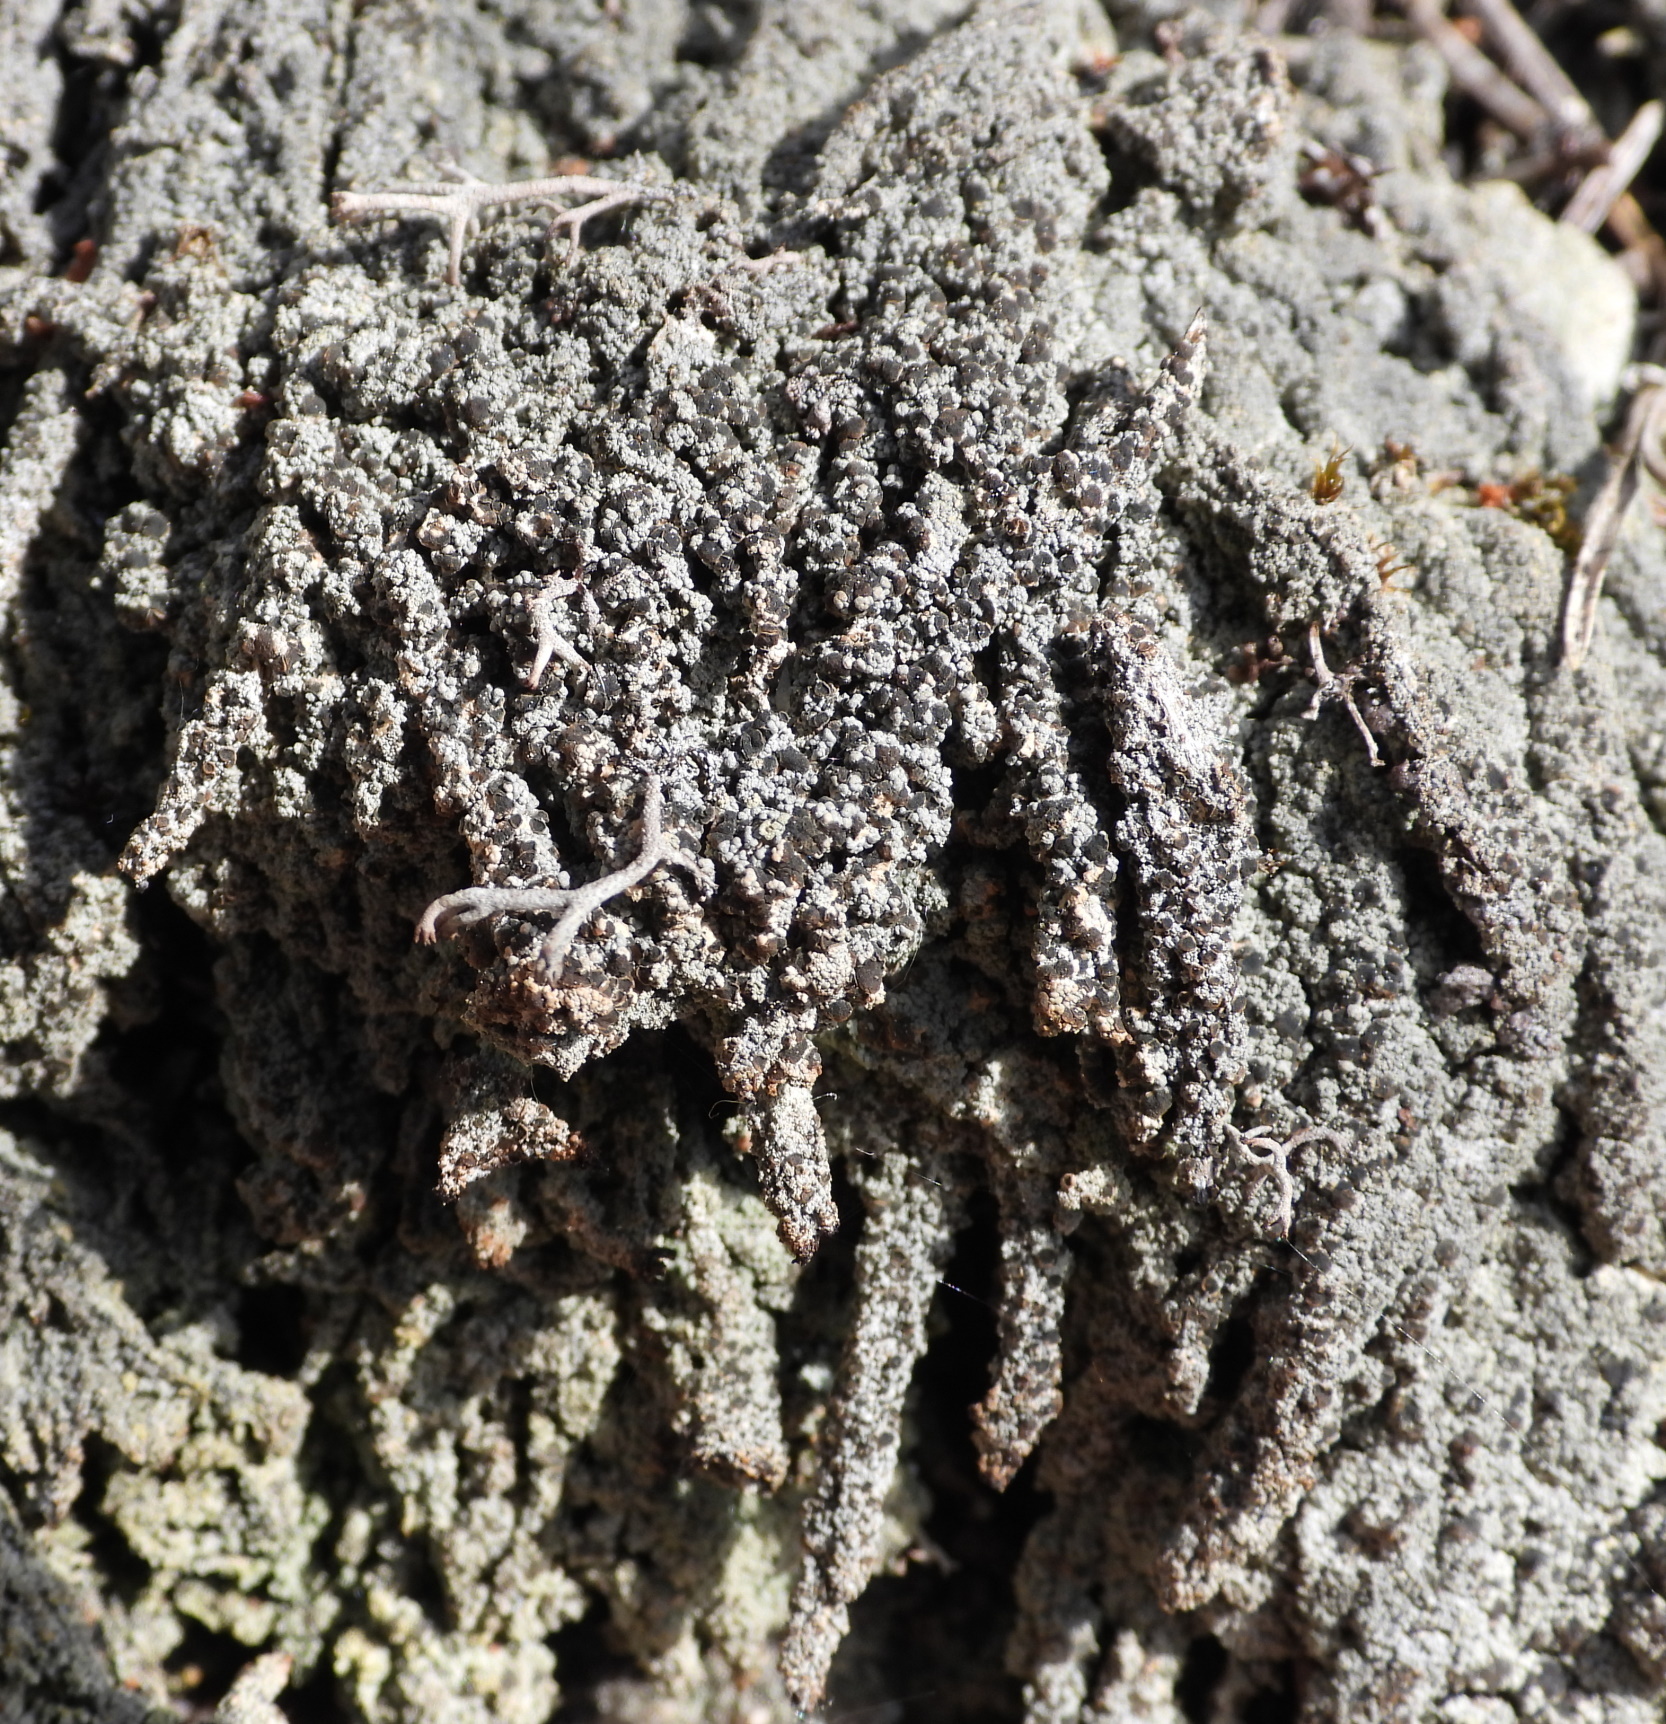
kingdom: Fungi
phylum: Ascomycota
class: Lecanoromycetes
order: Baeomycetales
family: Trapeliaceae
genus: Trapeliopsis
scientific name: Trapeliopsis granulosa
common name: Granular mottled-disk lichen
